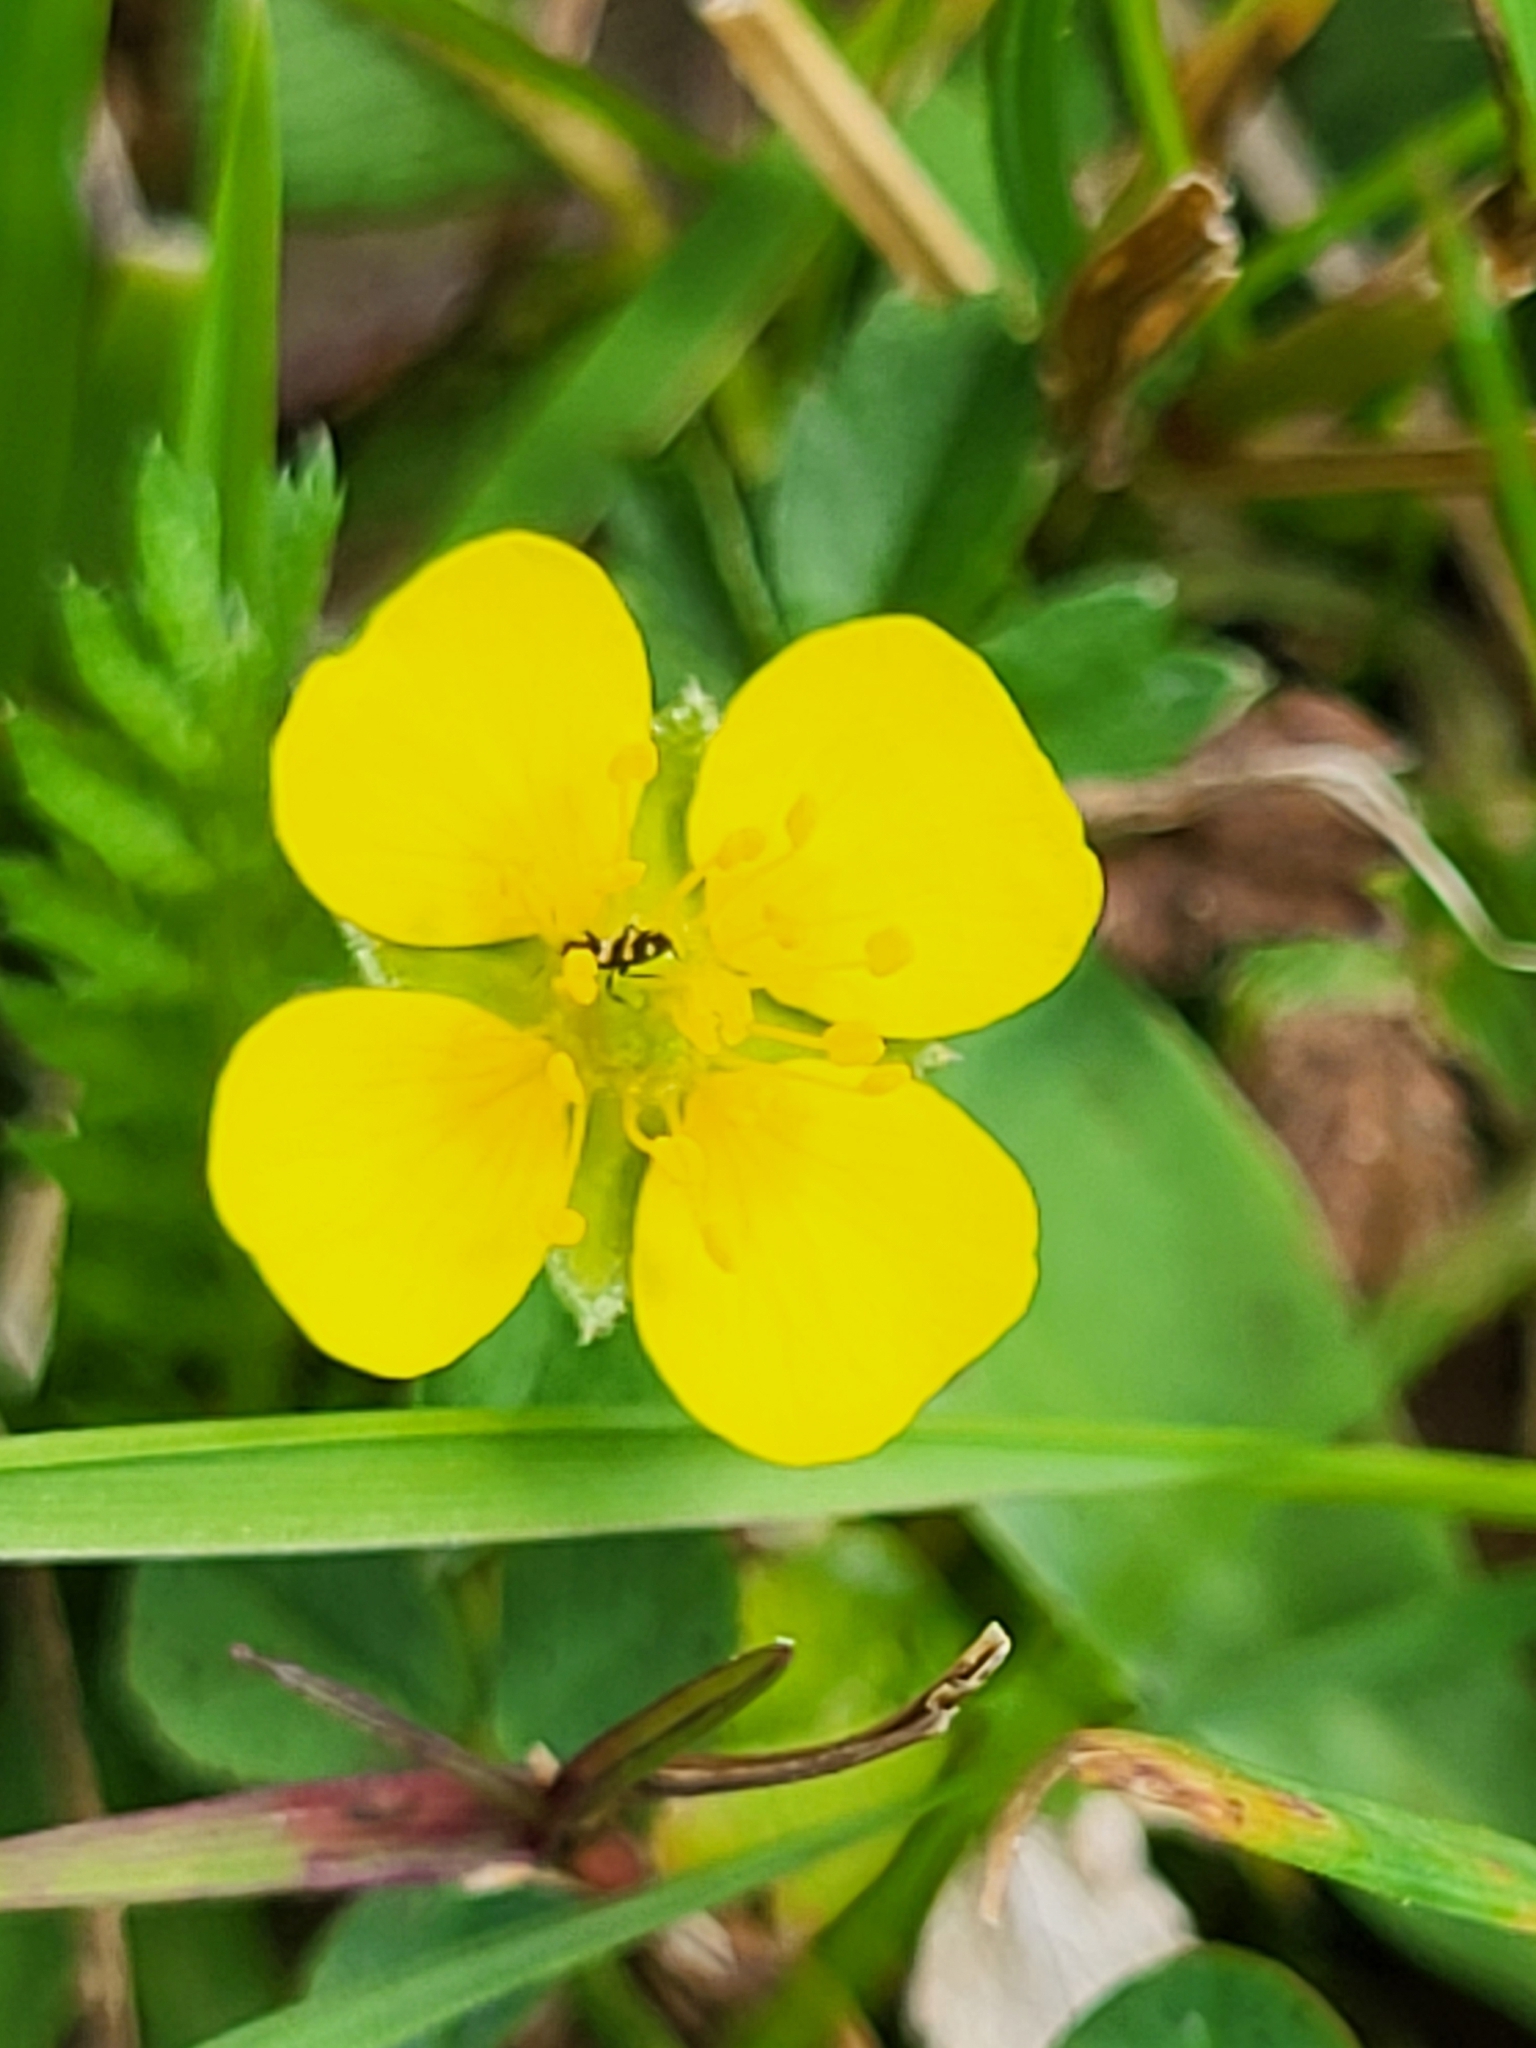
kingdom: Plantae
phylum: Tracheophyta
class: Magnoliopsida
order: Rosales
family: Rosaceae
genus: Potentilla
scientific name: Potentilla erecta
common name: Tormentil
